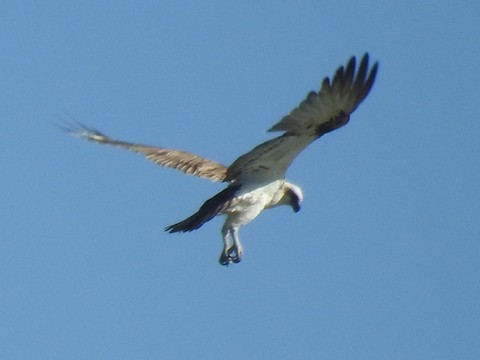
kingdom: Animalia
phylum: Chordata
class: Aves
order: Accipitriformes
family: Pandionidae
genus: Pandion
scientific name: Pandion haliaetus
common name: Osprey
